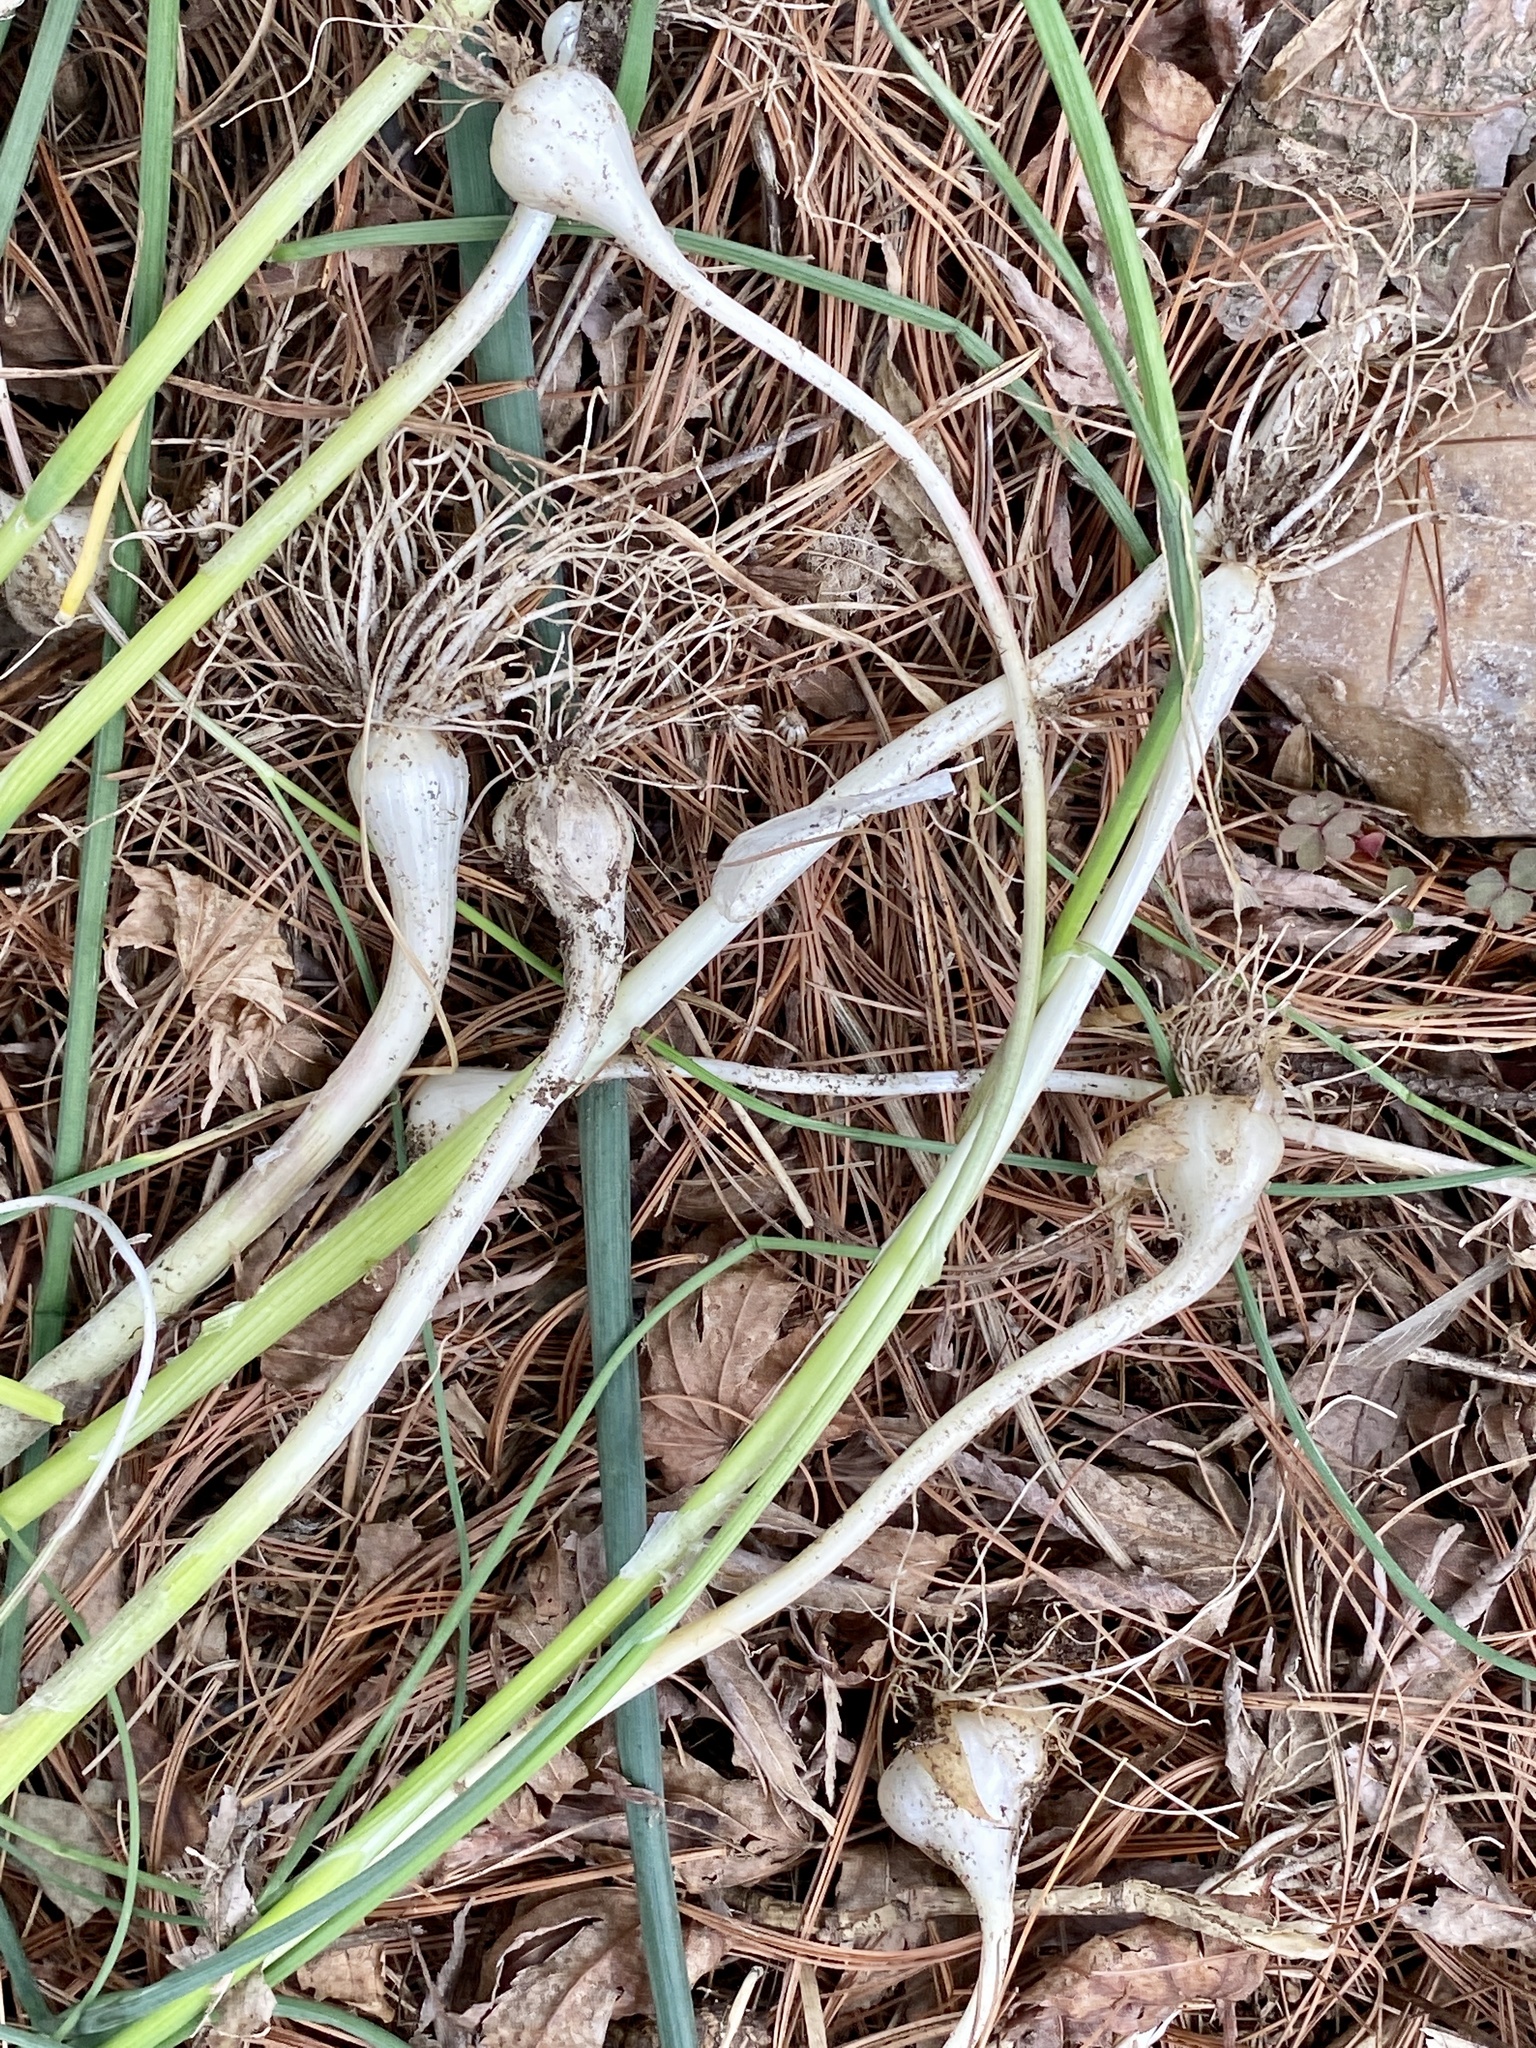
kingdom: Plantae
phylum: Tracheophyta
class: Liliopsida
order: Asparagales
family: Amaryllidaceae
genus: Allium
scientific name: Allium vineale
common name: Crow garlic
